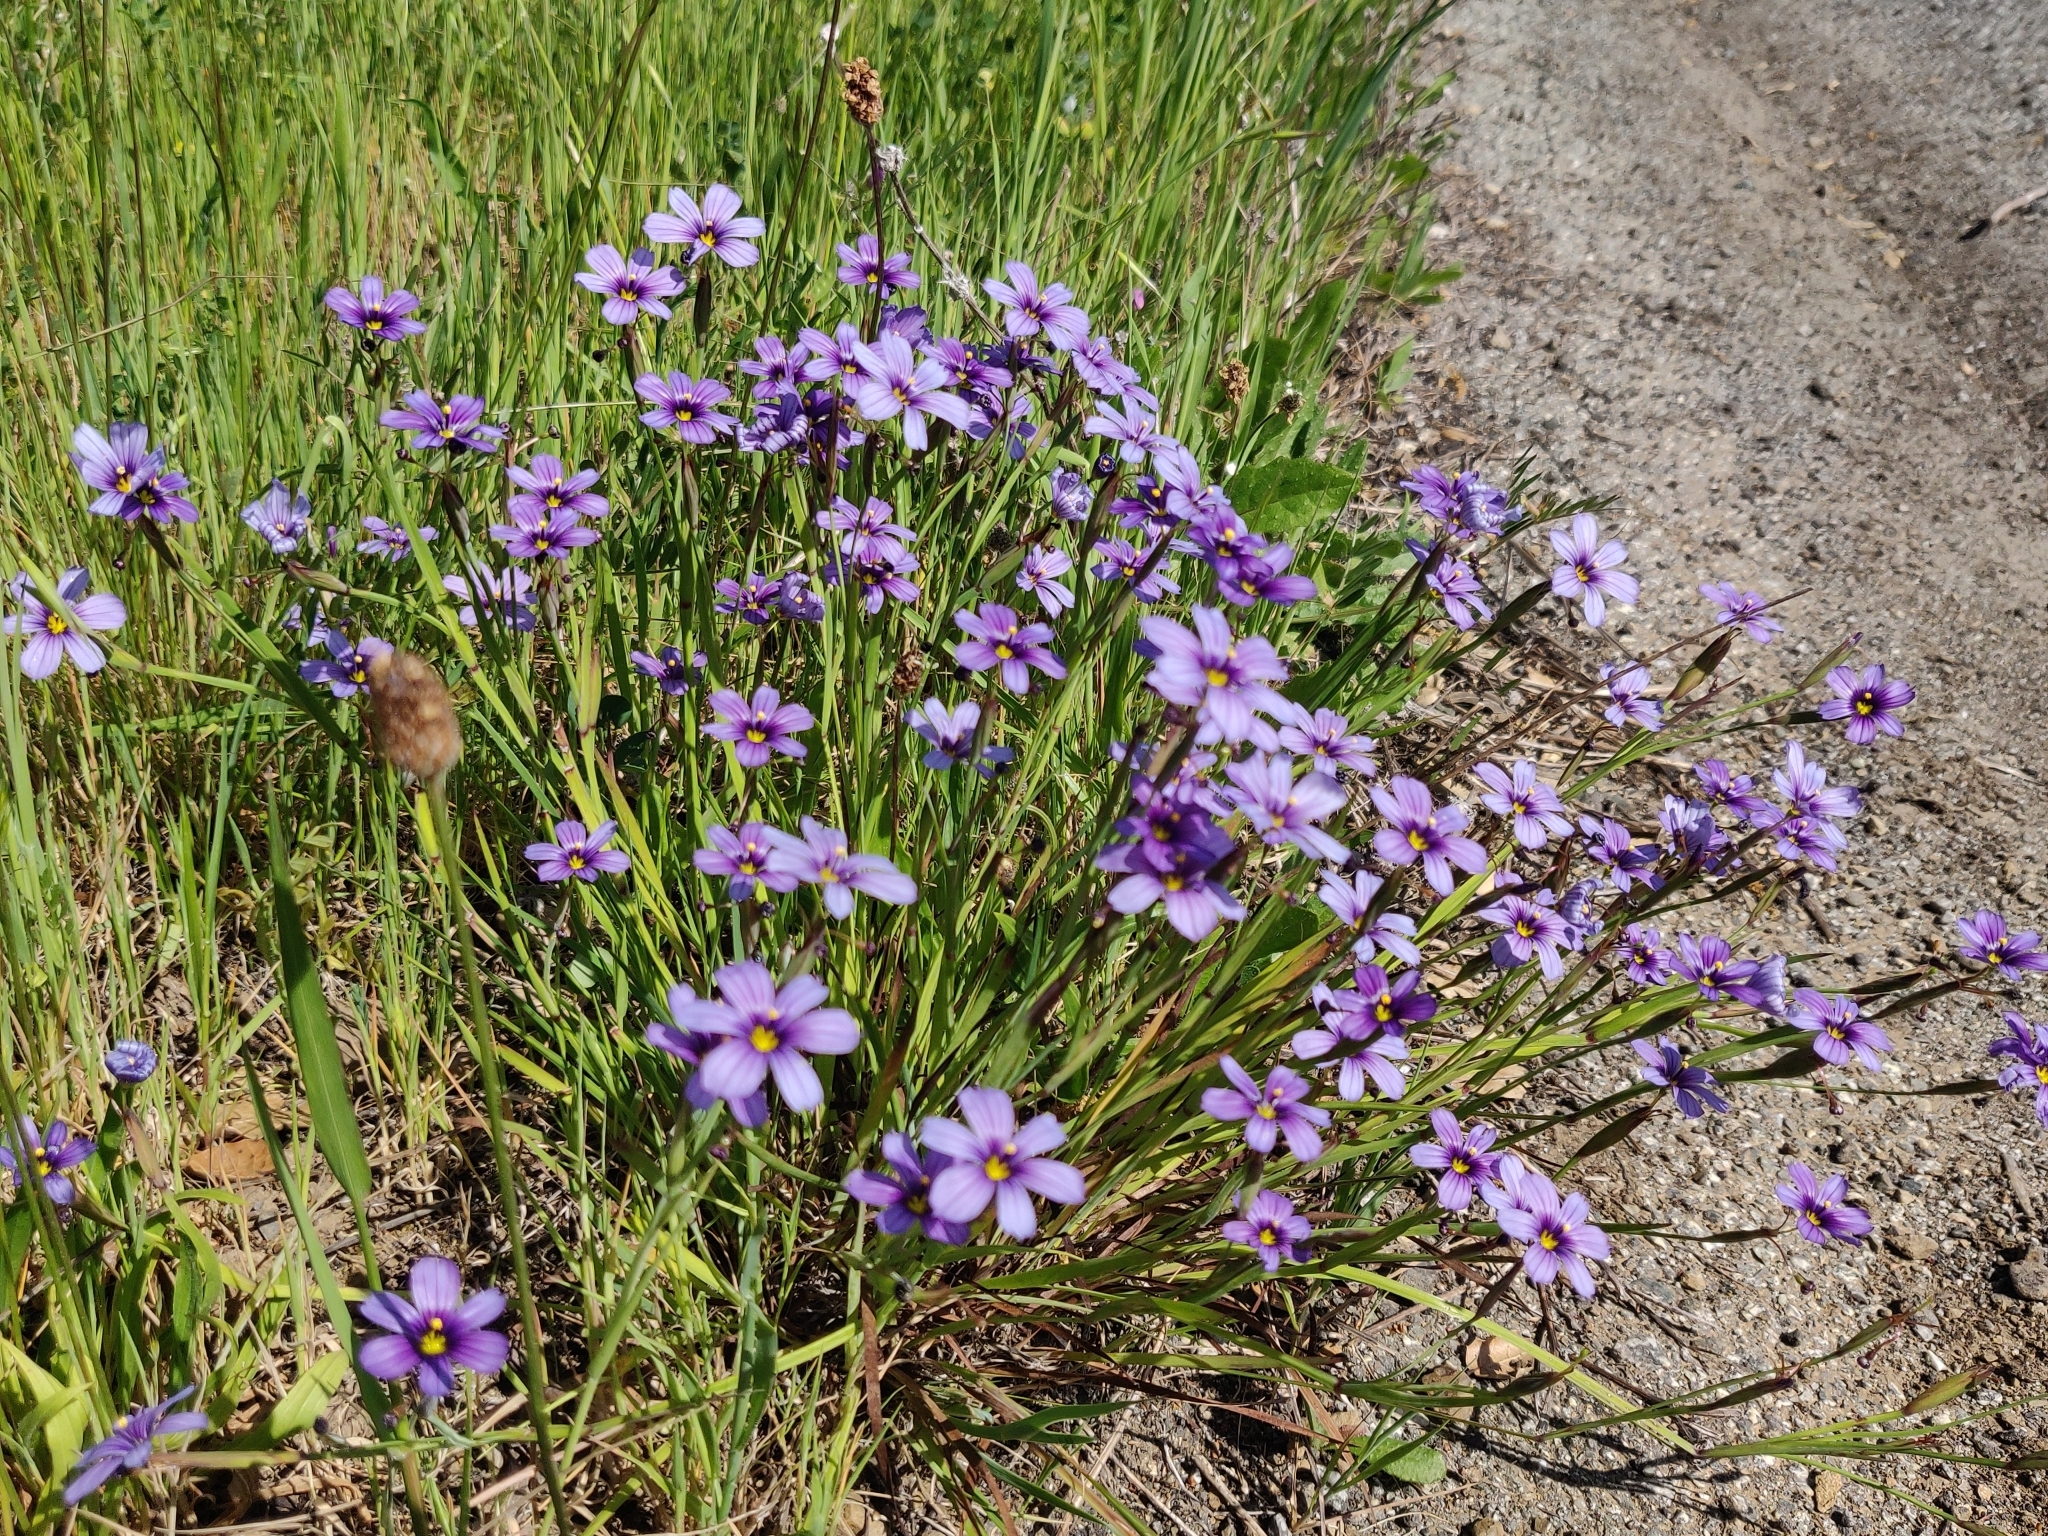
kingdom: Plantae
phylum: Tracheophyta
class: Liliopsida
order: Asparagales
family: Iridaceae
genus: Sisyrinchium
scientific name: Sisyrinchium bellum
